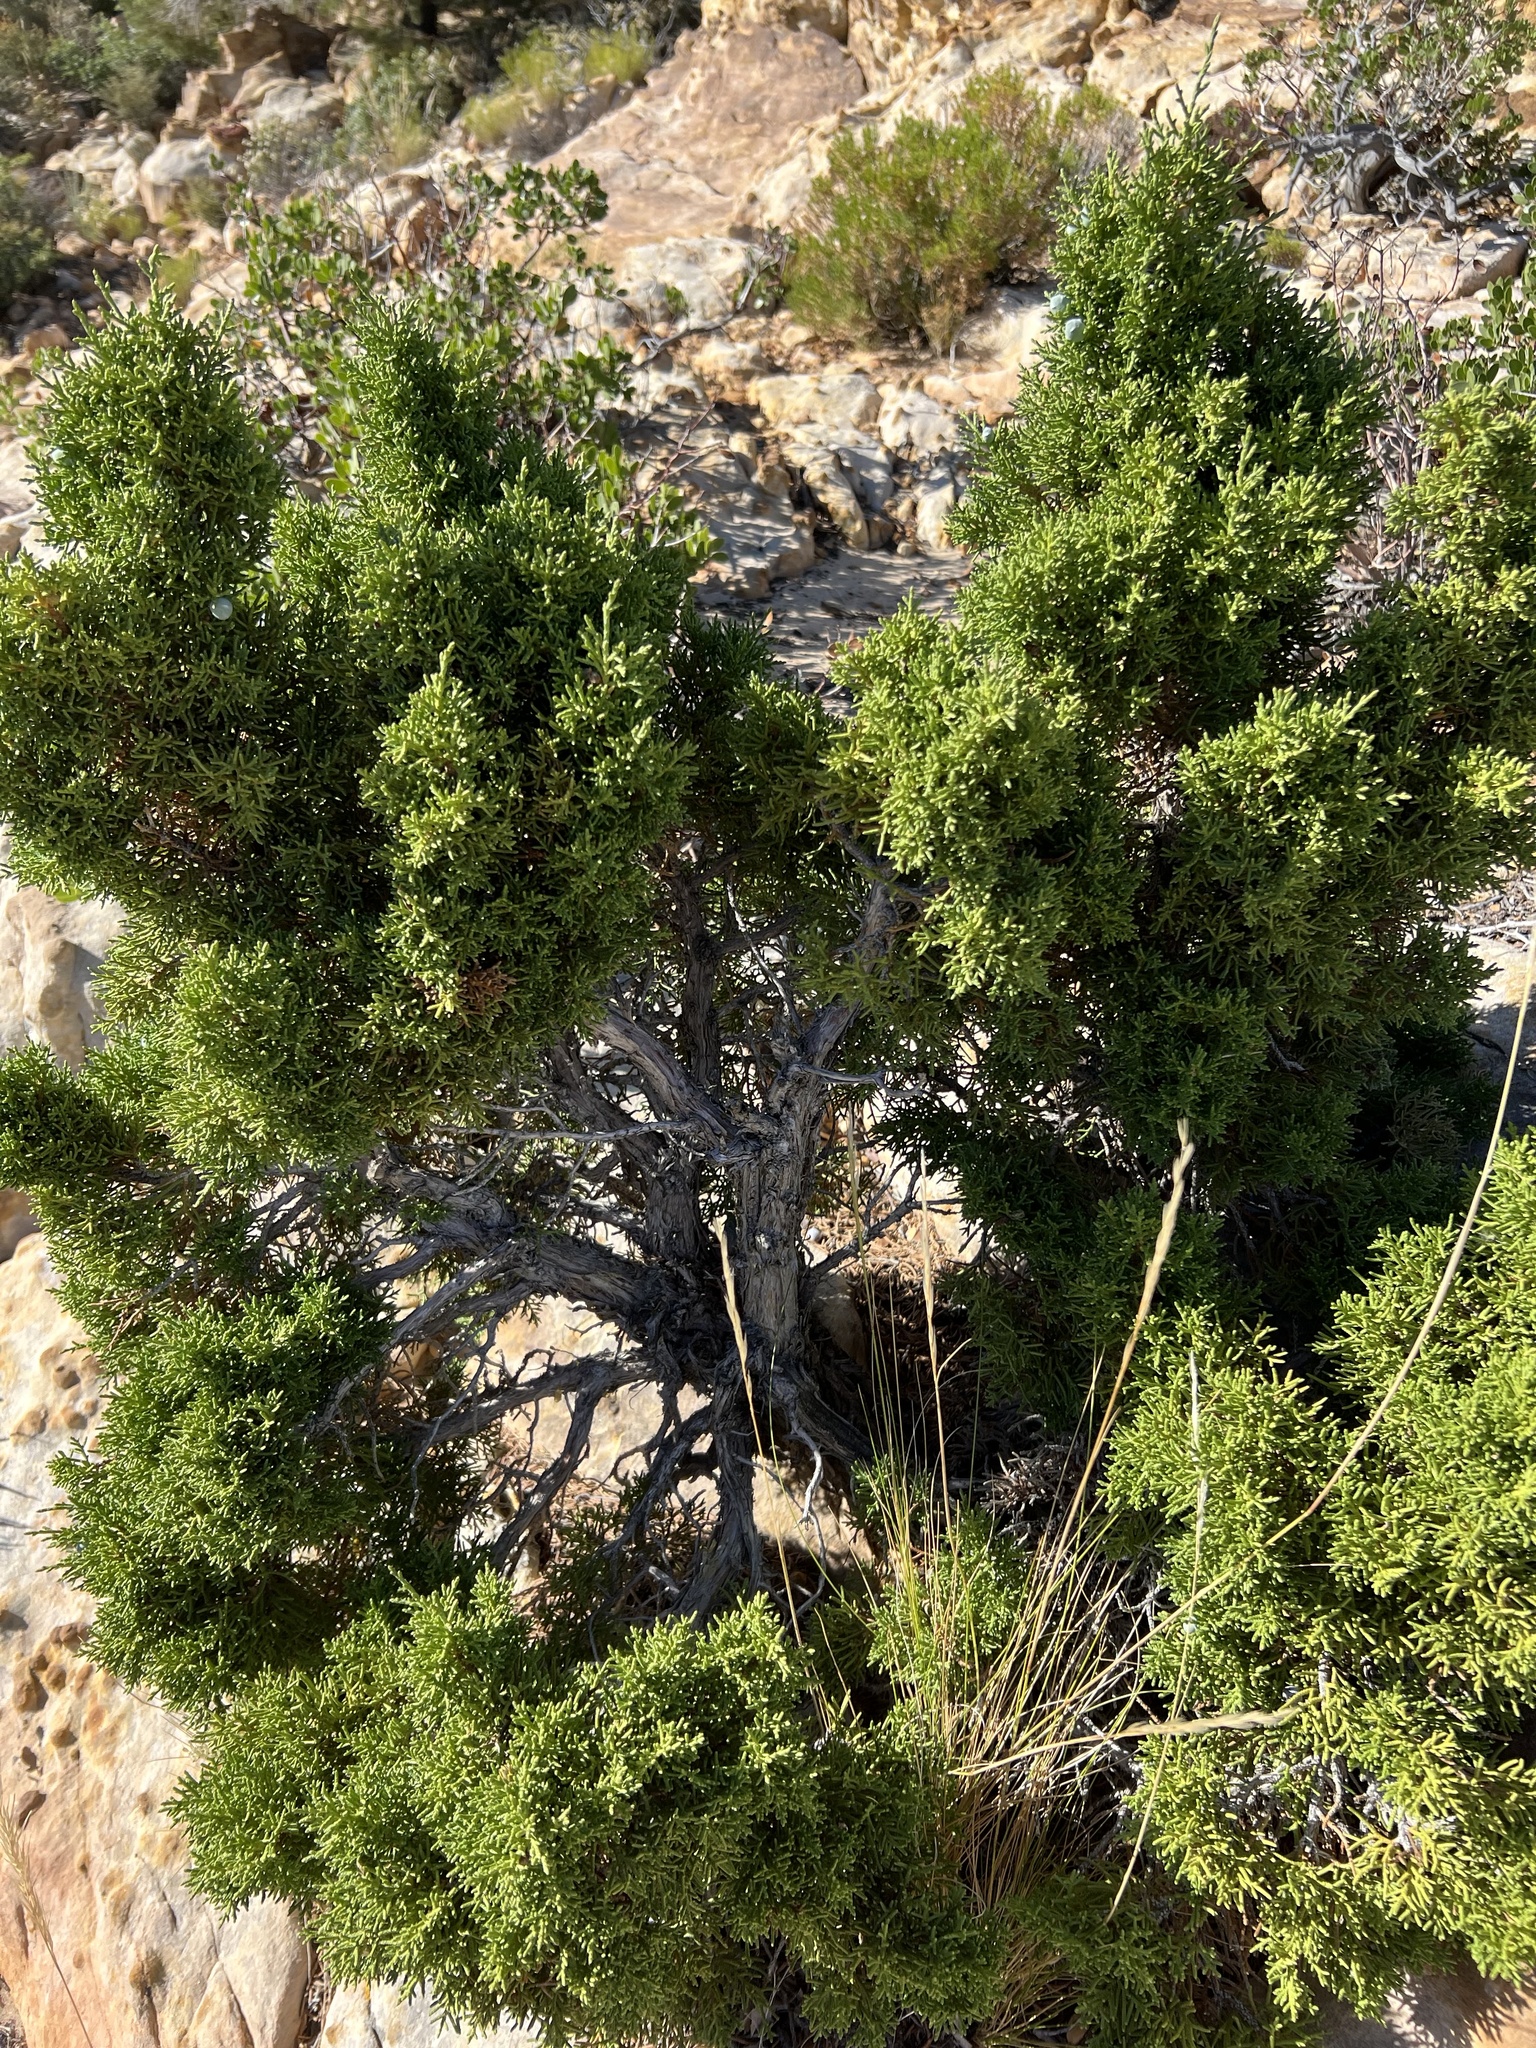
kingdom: Plantae
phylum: Tracheophyta
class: Pinopsida
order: Pinales
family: Cupressaceae
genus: Juniperus
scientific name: Juniperus osteosperma
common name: Utah juniper
